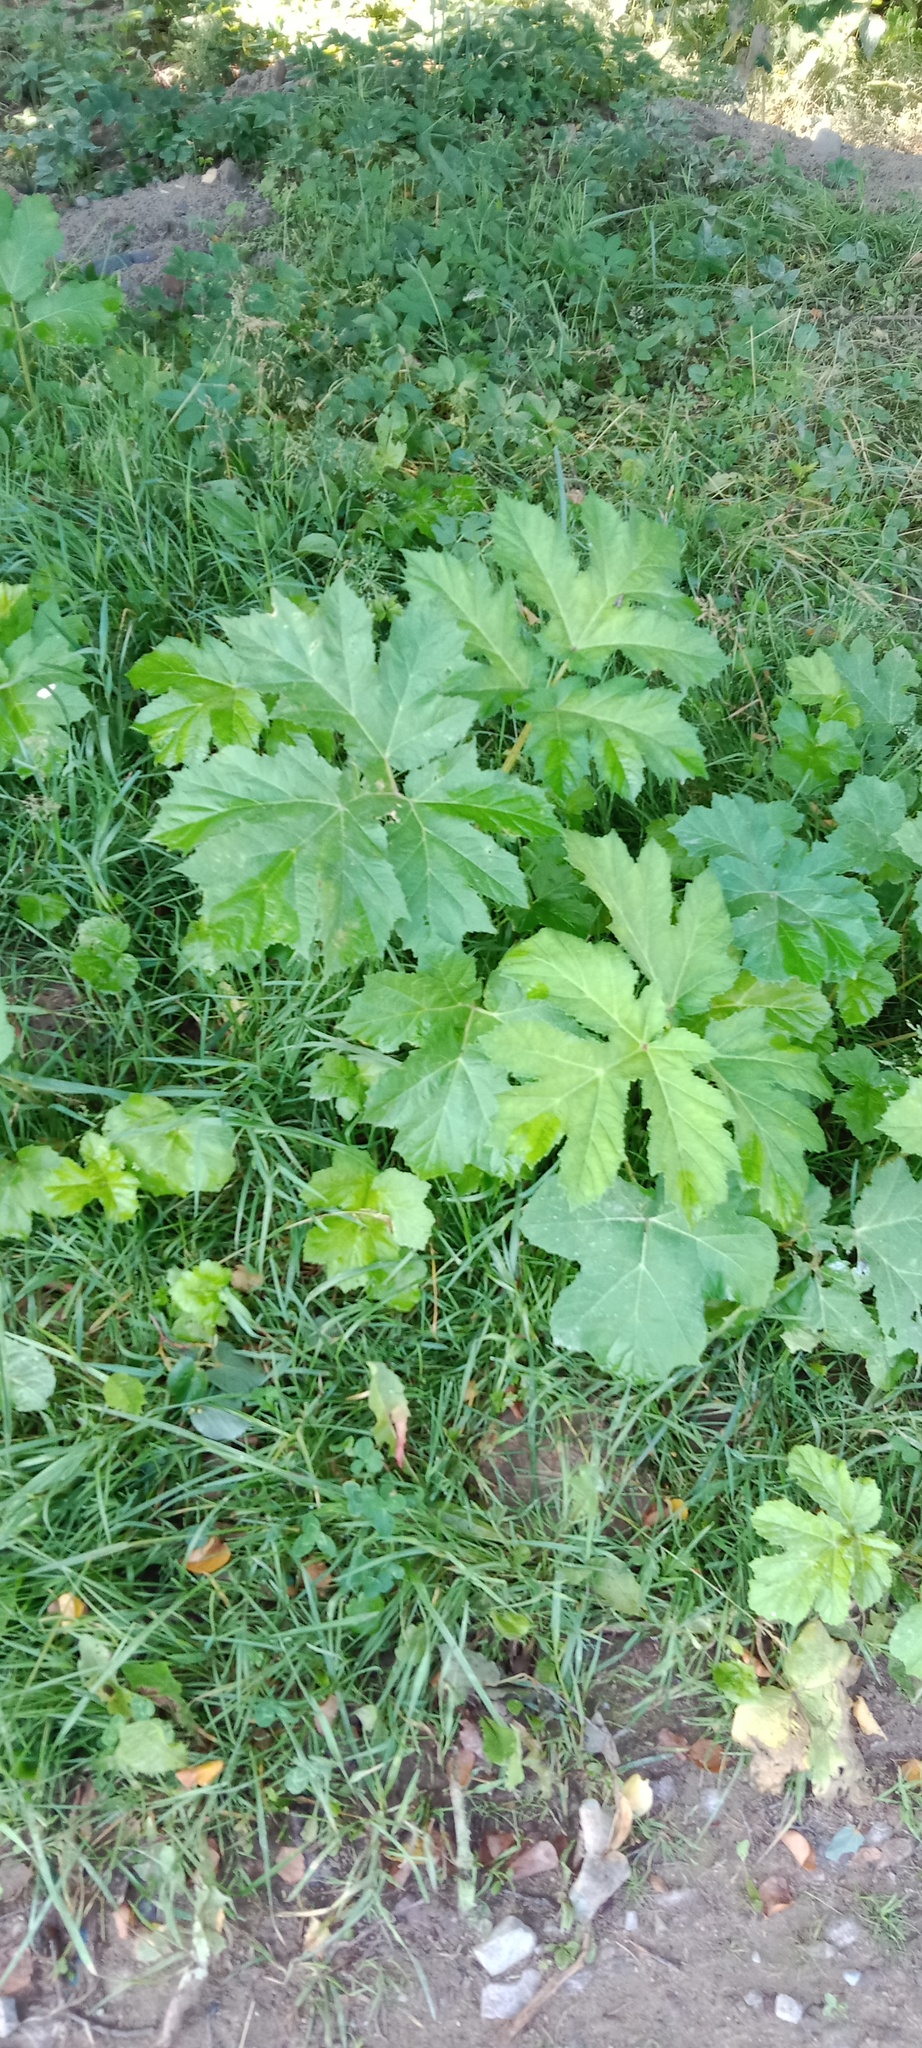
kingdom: Plantae
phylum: Tracheophyta
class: Magnoliopsida
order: Apiales
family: Apiaceae
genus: Heracleum
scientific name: Heracleum sosnowskyi
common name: Sosnowsky's hogweed
